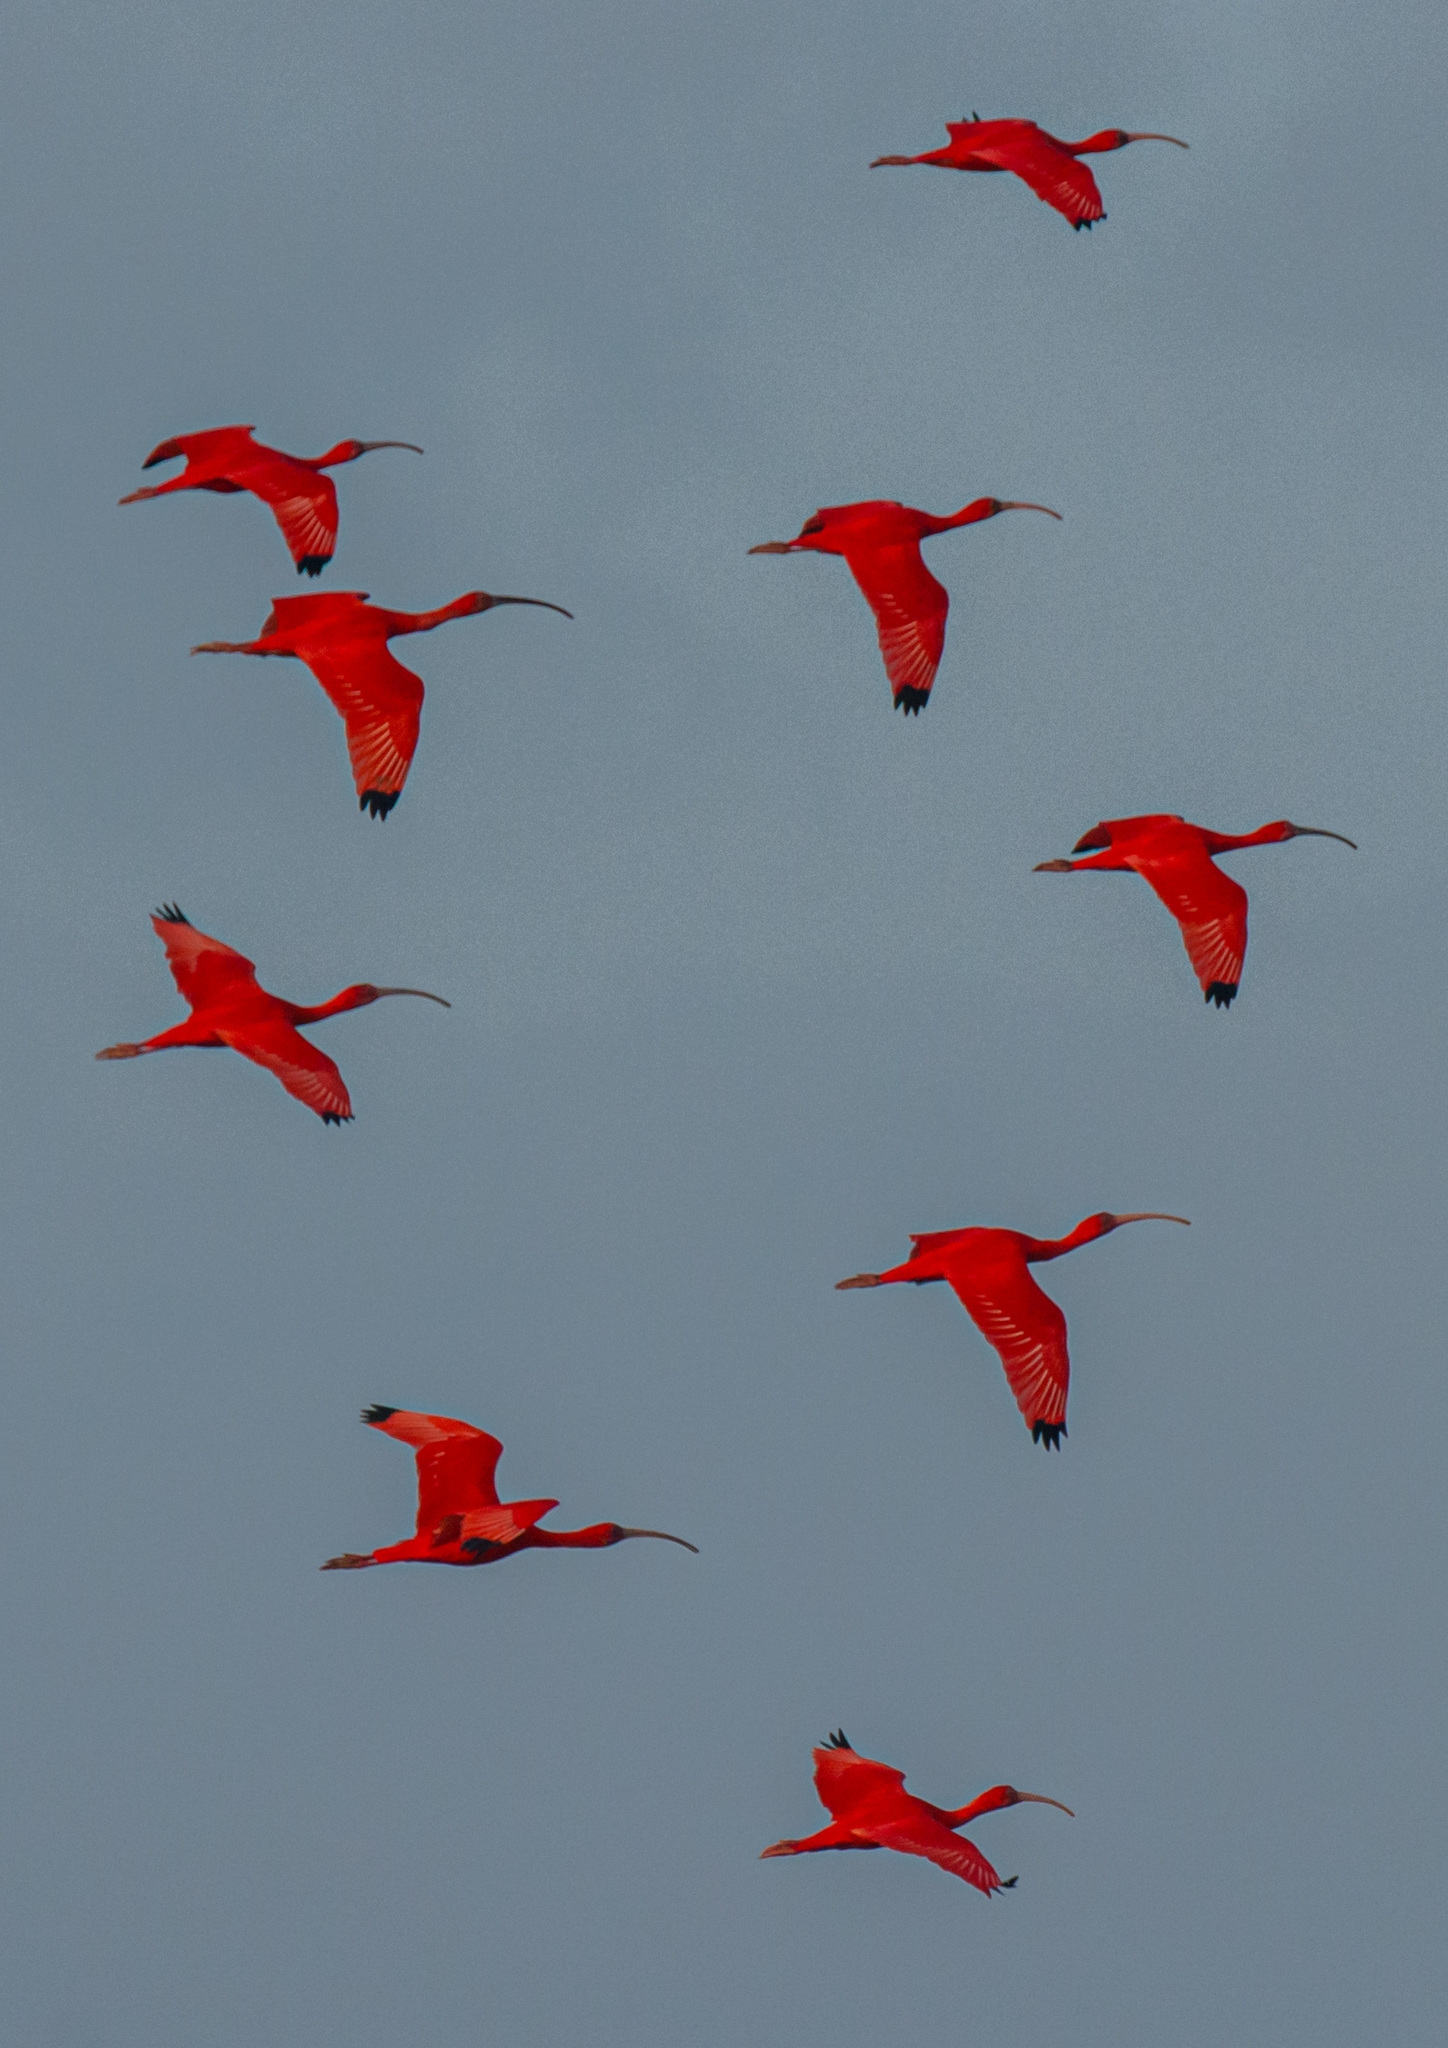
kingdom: Animalia
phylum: Chordata
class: Aves
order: Pelecaniformes
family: Threskiornithidae
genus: Eudocimus
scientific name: Eudocimus ruber
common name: Scarlet ibis
